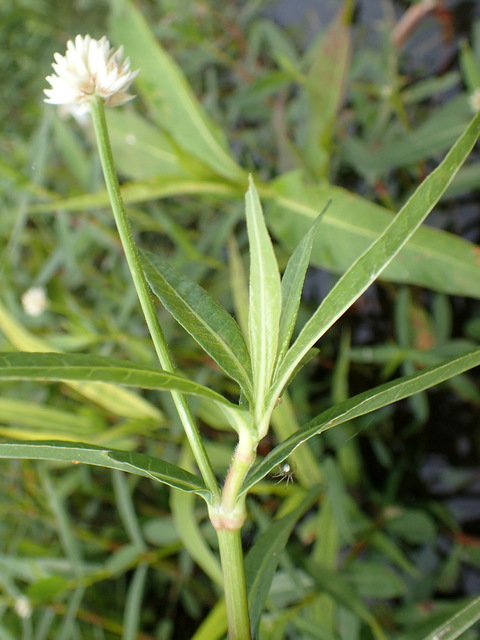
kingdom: Plantae
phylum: Tracheophyta
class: Magnoliopsida
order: Caryophyllales
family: Amaranthaceae
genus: Alternanthera
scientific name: Alternanthera philoxeroides
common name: Alligatorweed
